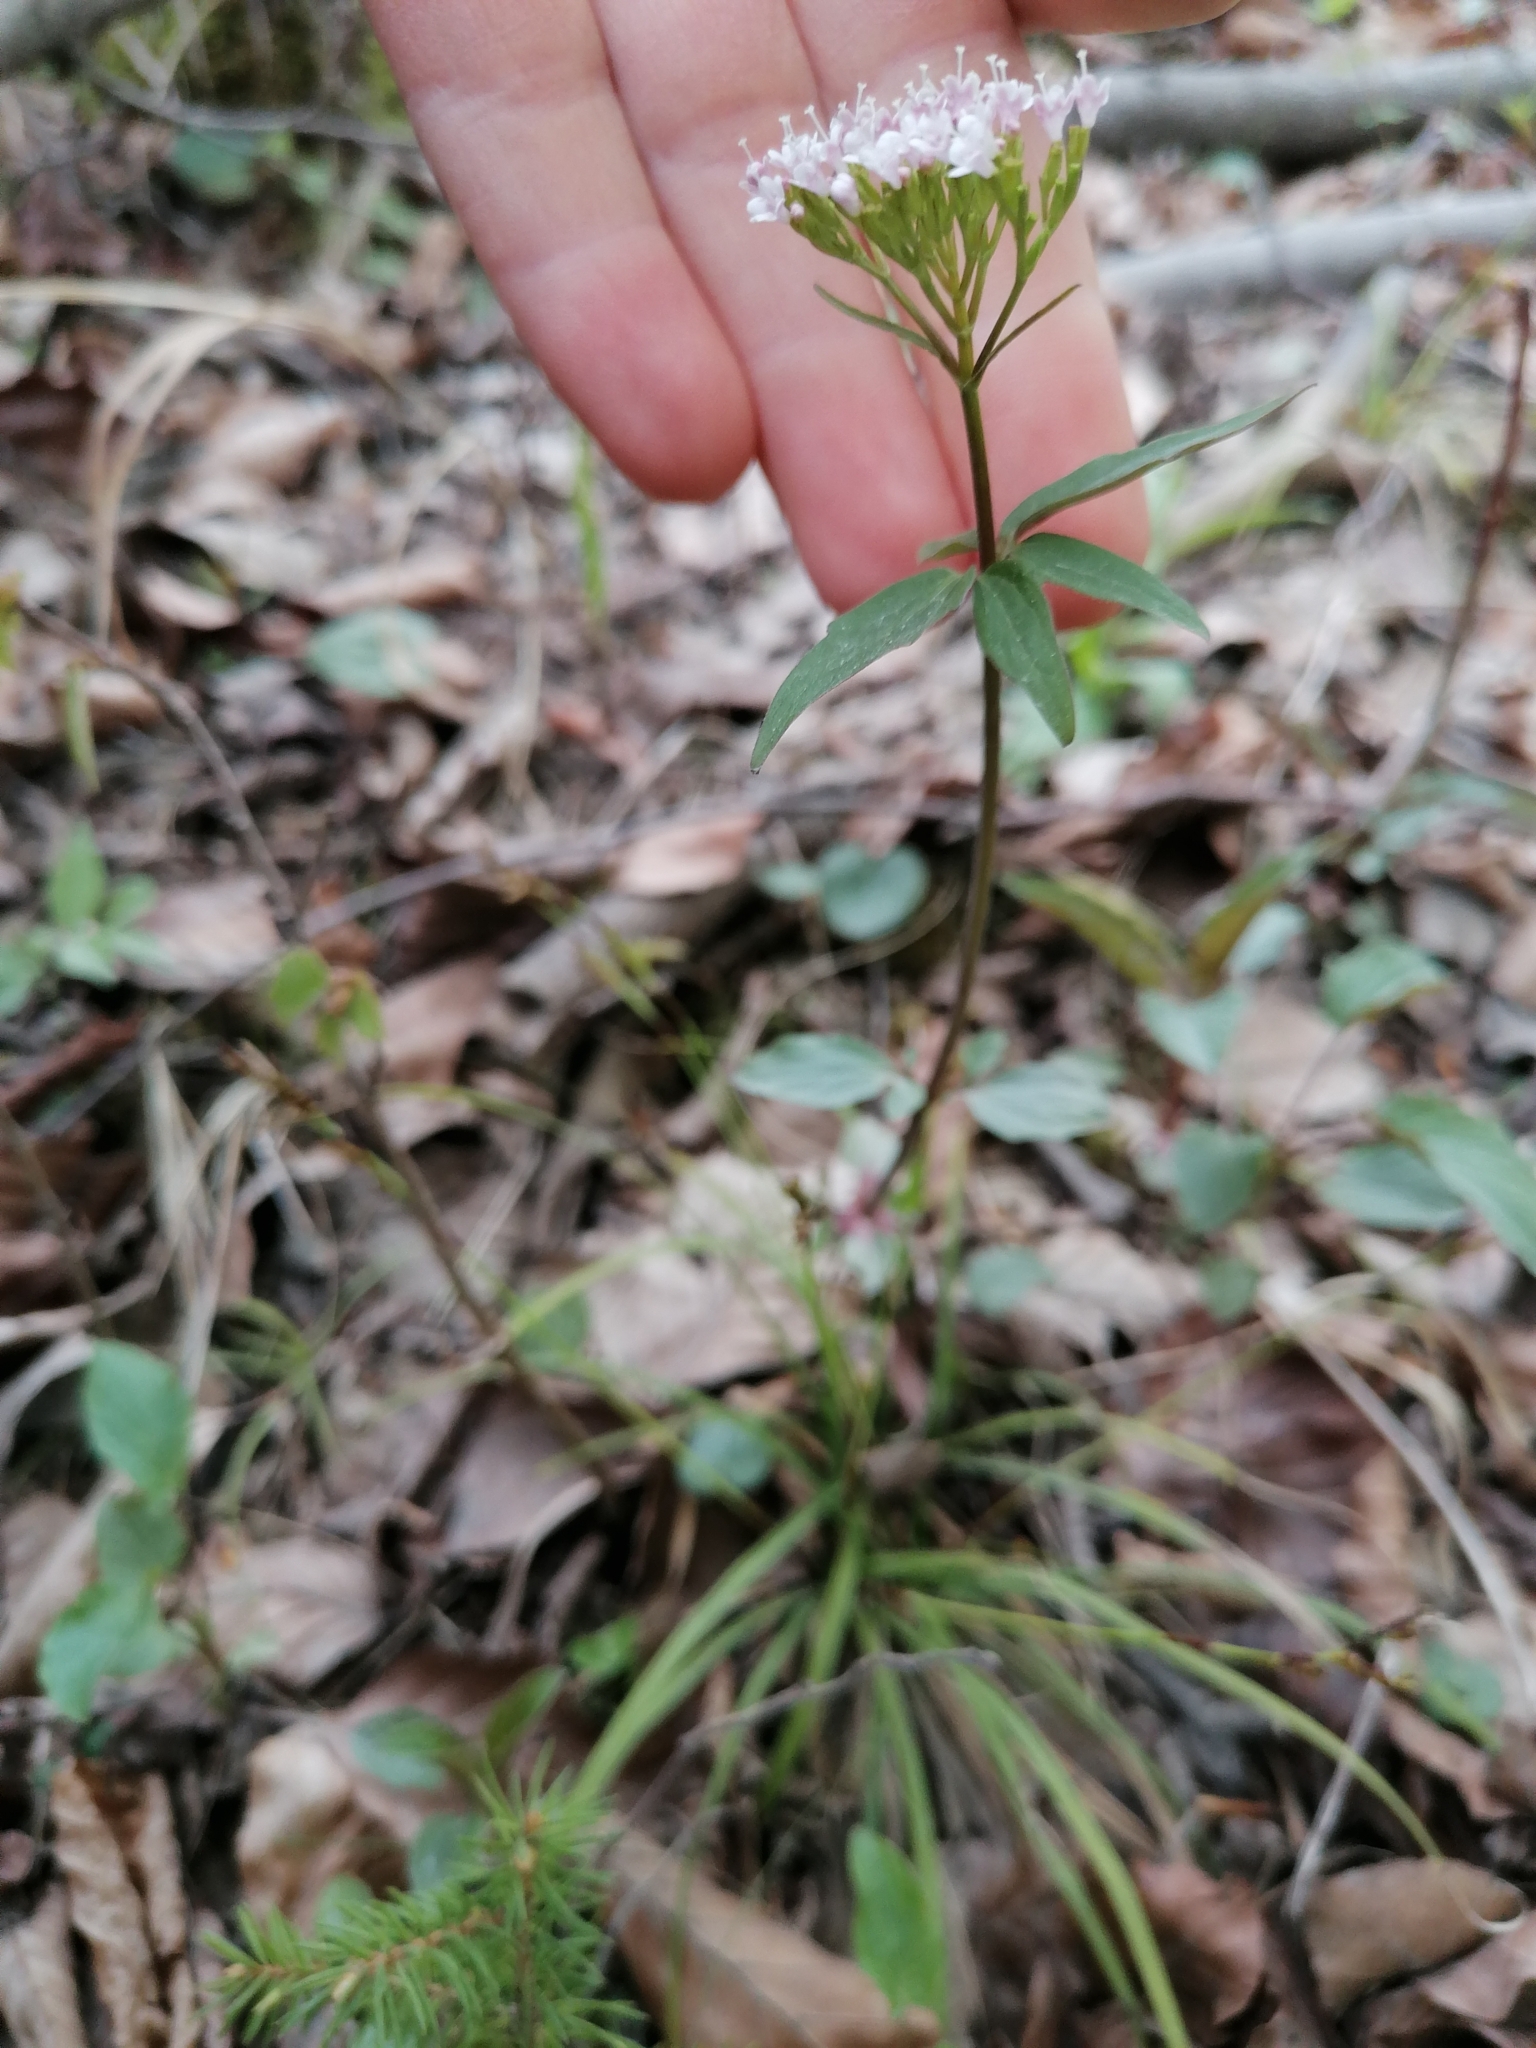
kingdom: Plantae
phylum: Tracheophyta
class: Magnoliopsida
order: Dipsacales
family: Caprifoliaceae
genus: Valeriana
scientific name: Valeriana tripteris
